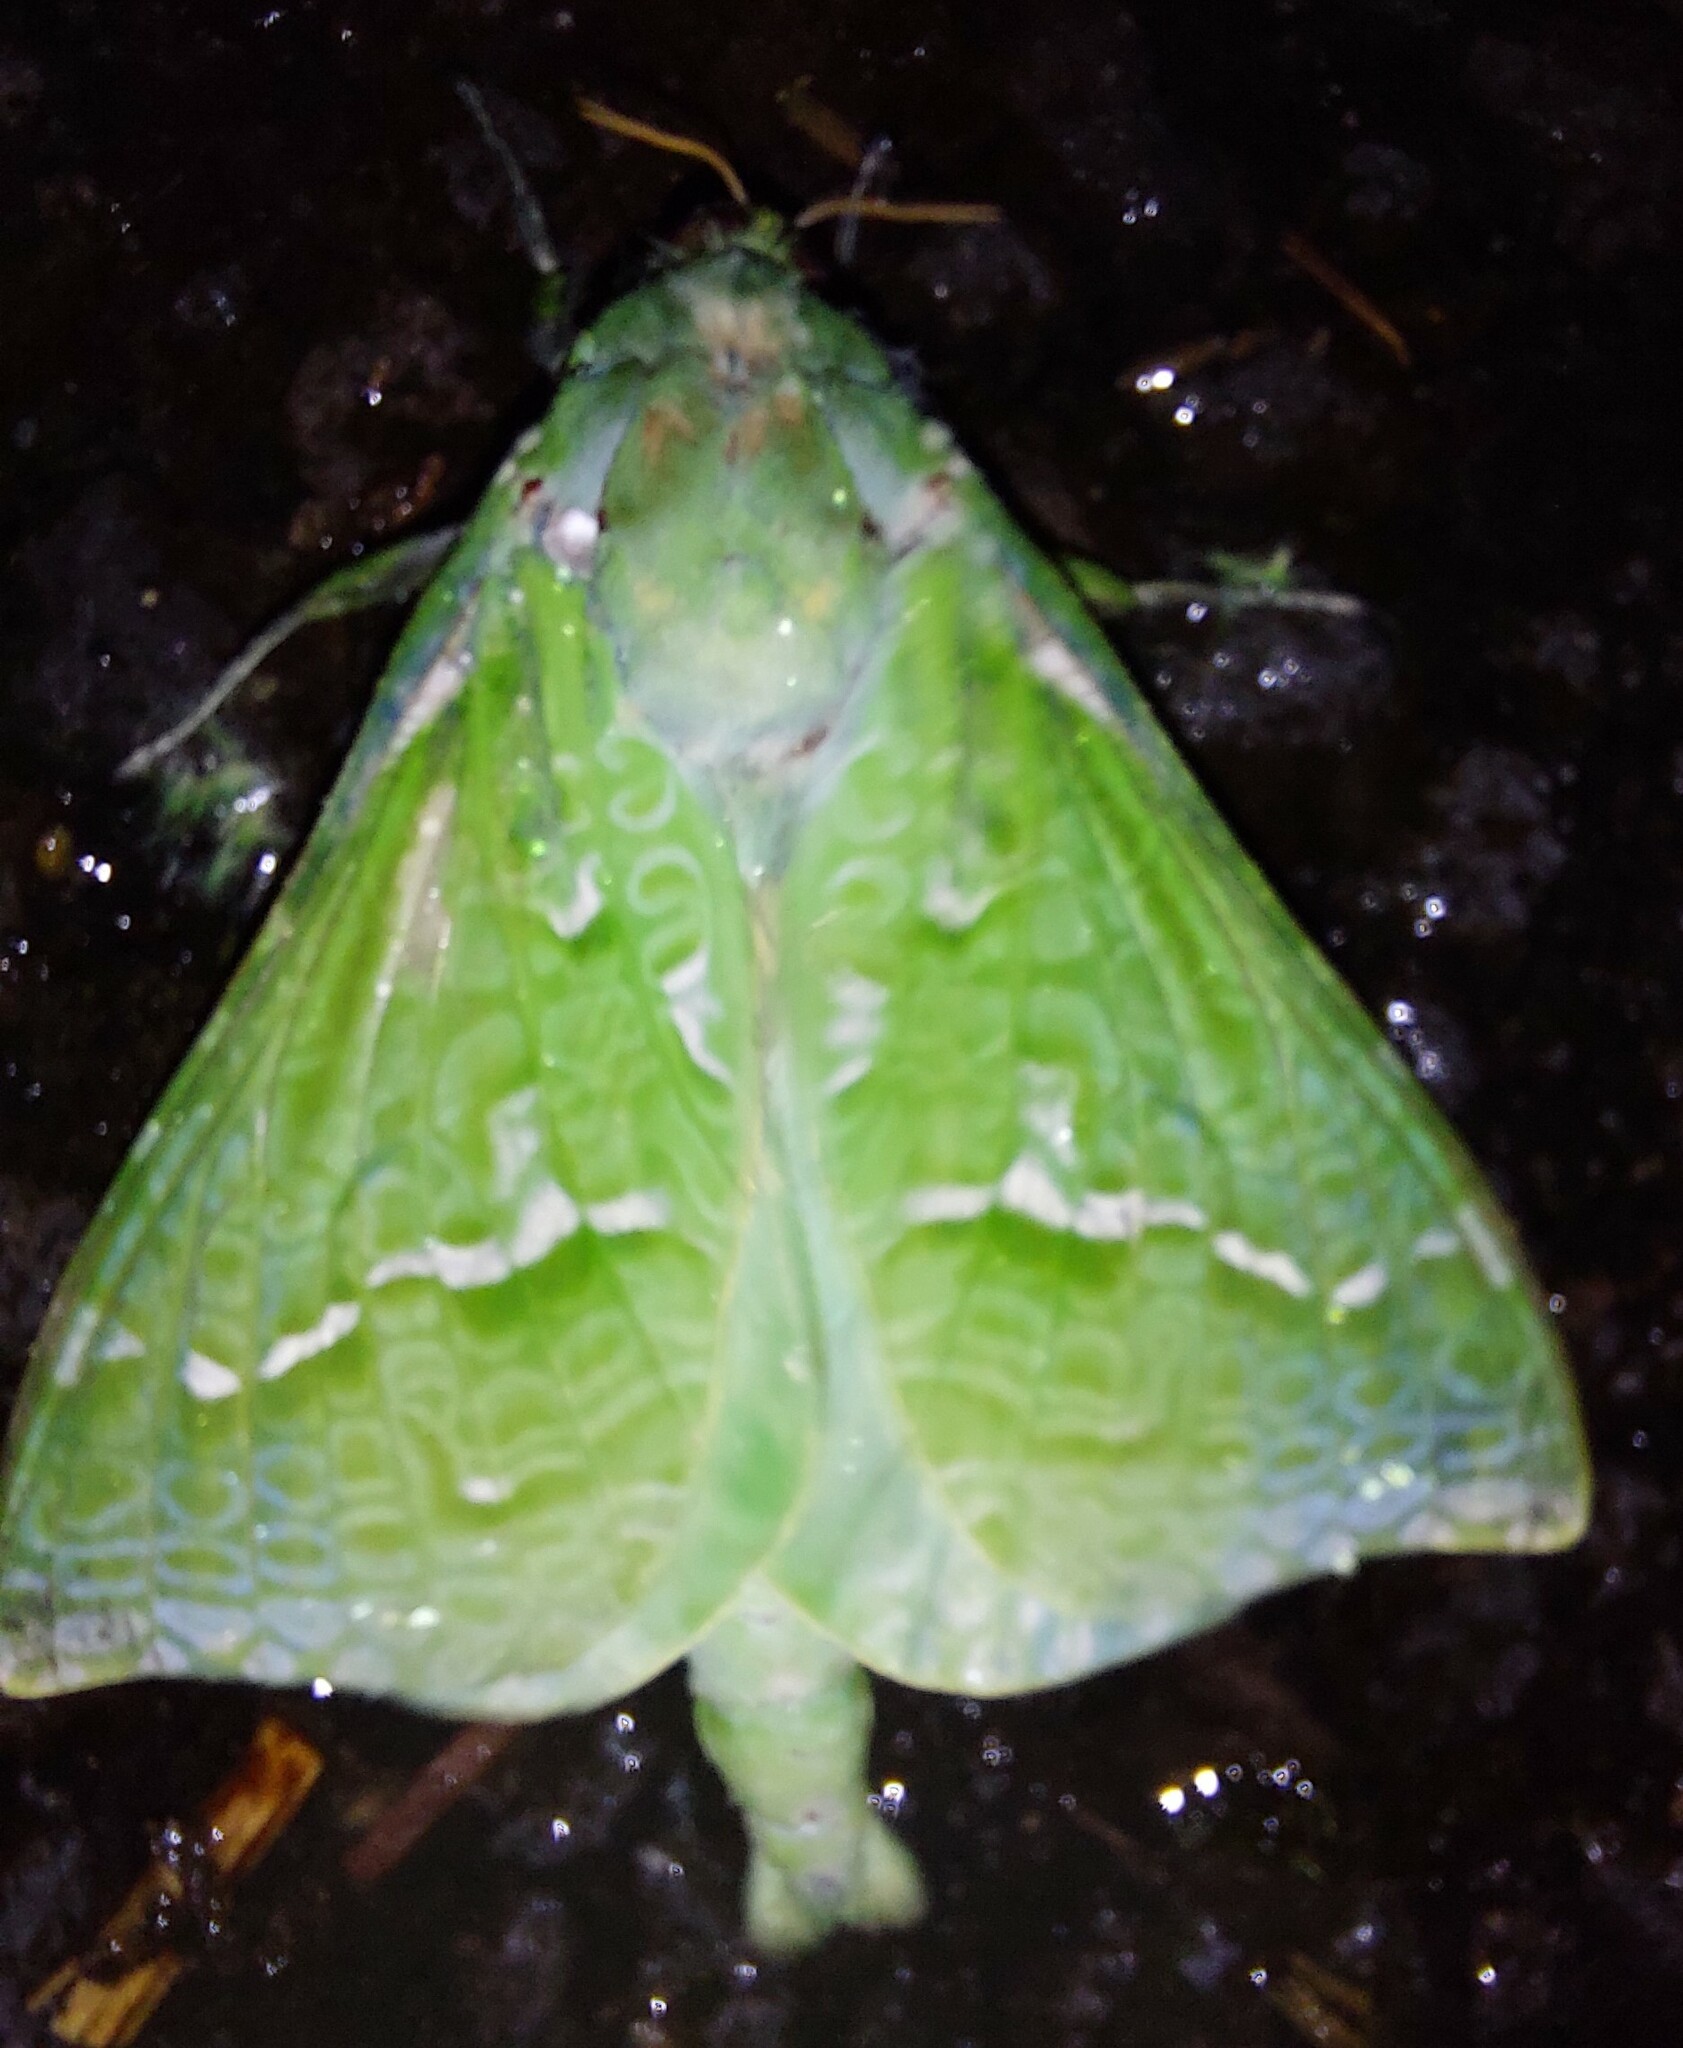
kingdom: Animalia
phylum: Arthropoda
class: Insecta
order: Lepidoptera
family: Hepialidae
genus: Aenetus
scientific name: Aenetus virescens
